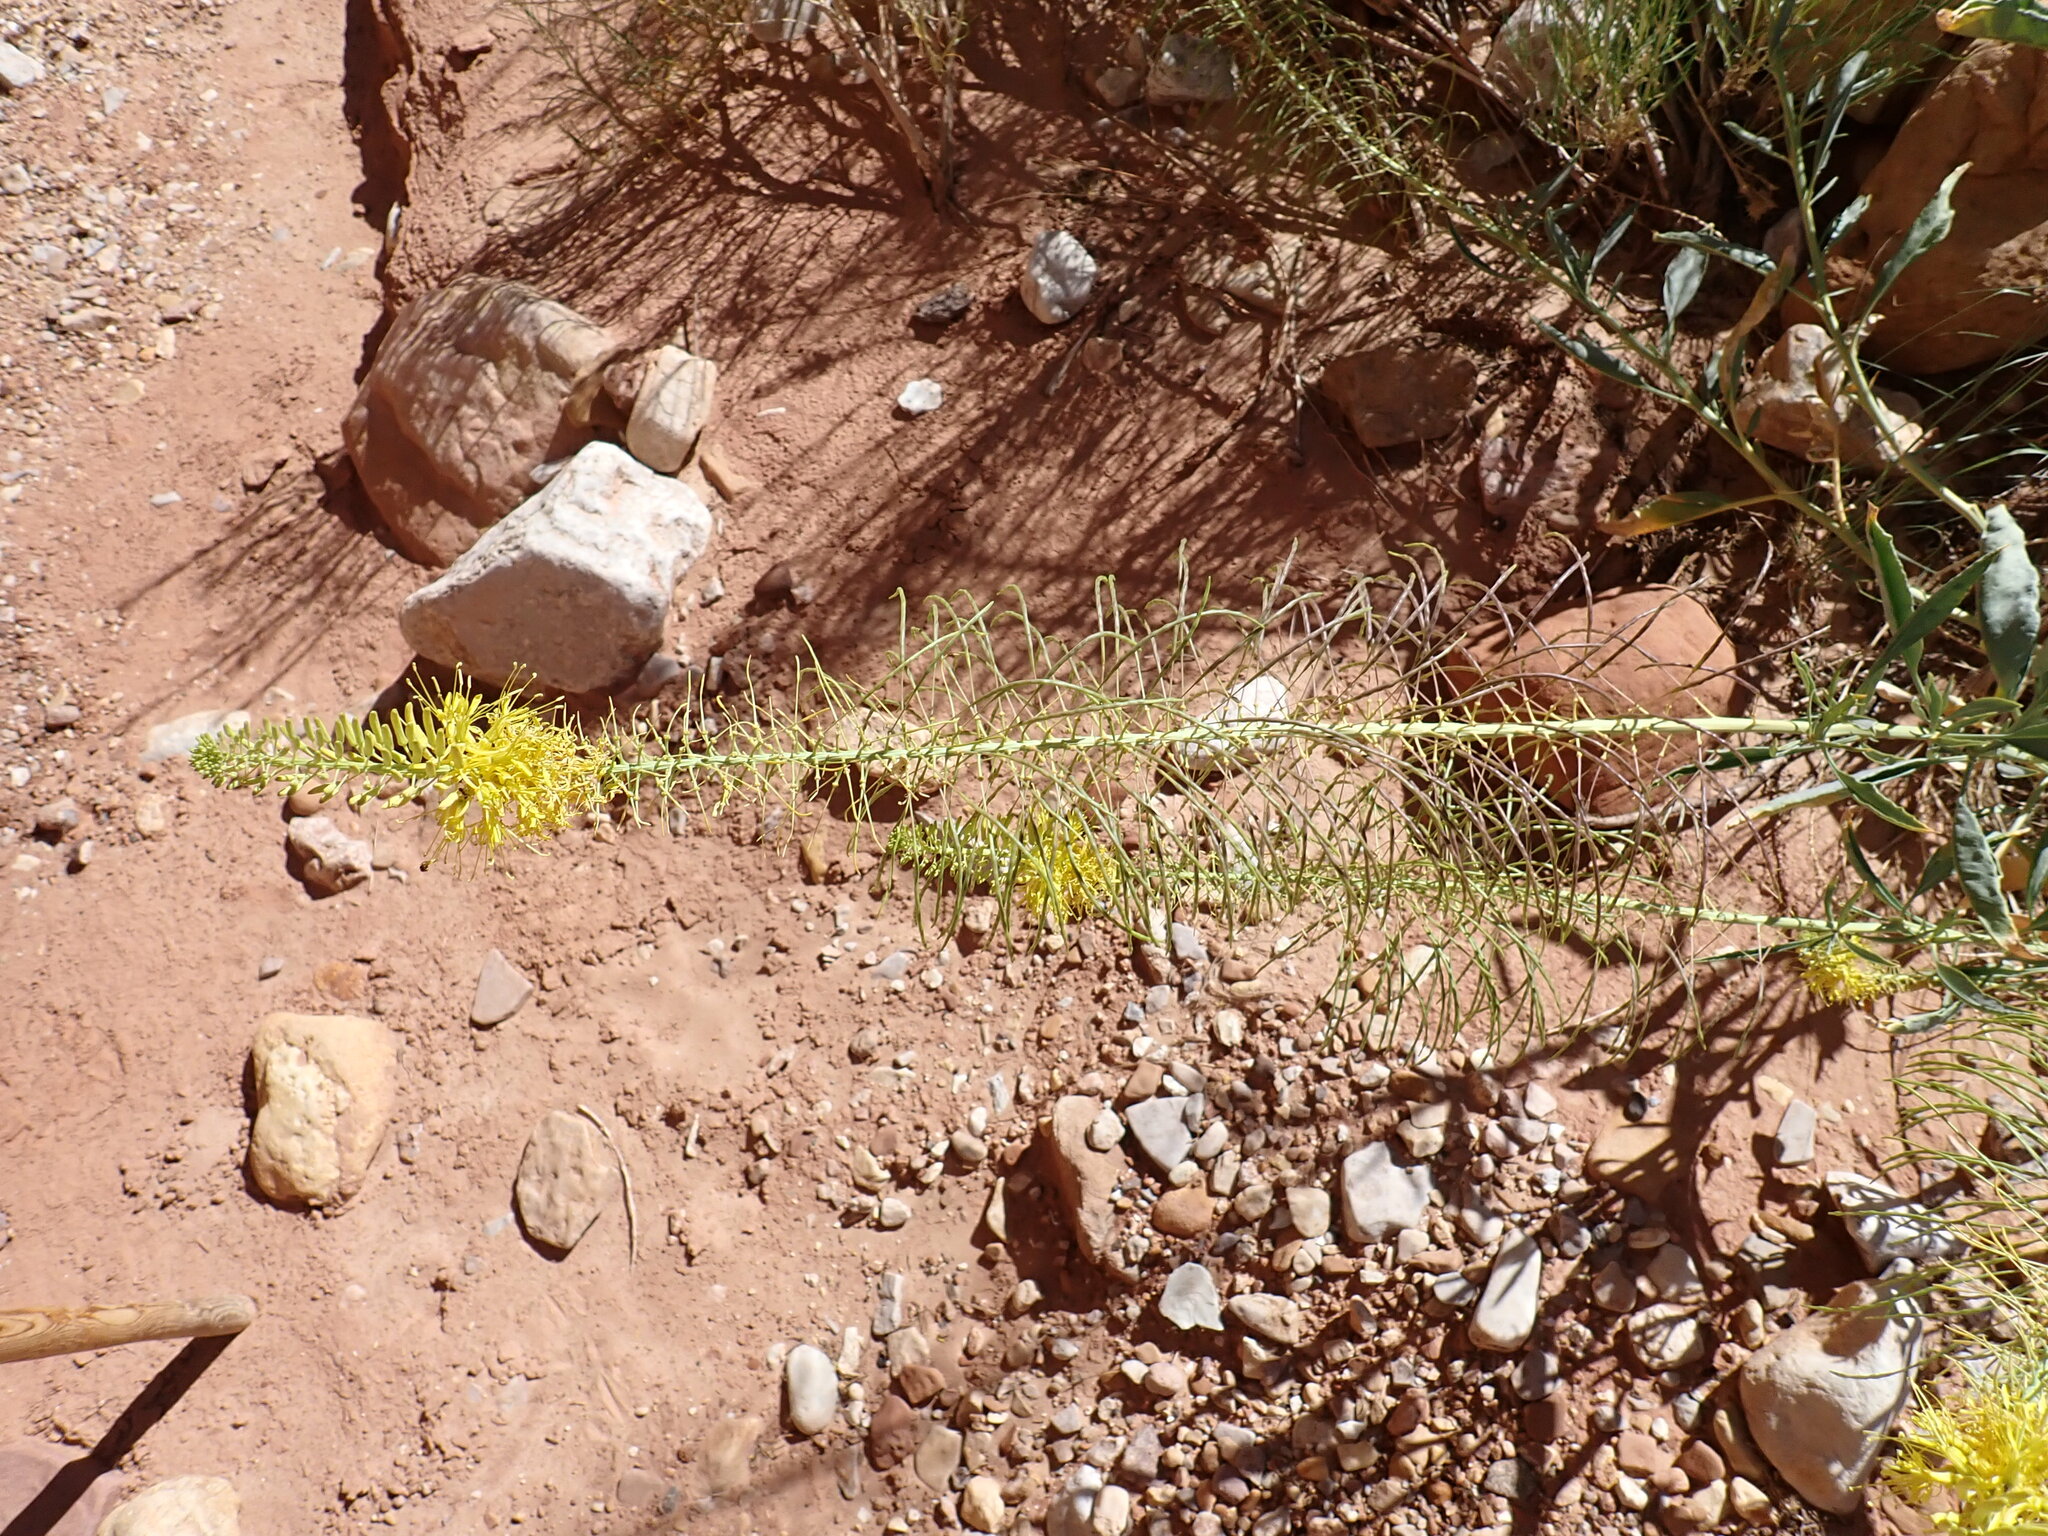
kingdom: Plantae
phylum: Tracheophyta
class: Magnoliopsida
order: Brassicales
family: Brassicaceae
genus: Stanleya
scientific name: Stanleya pinnata
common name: Prince's-plume
